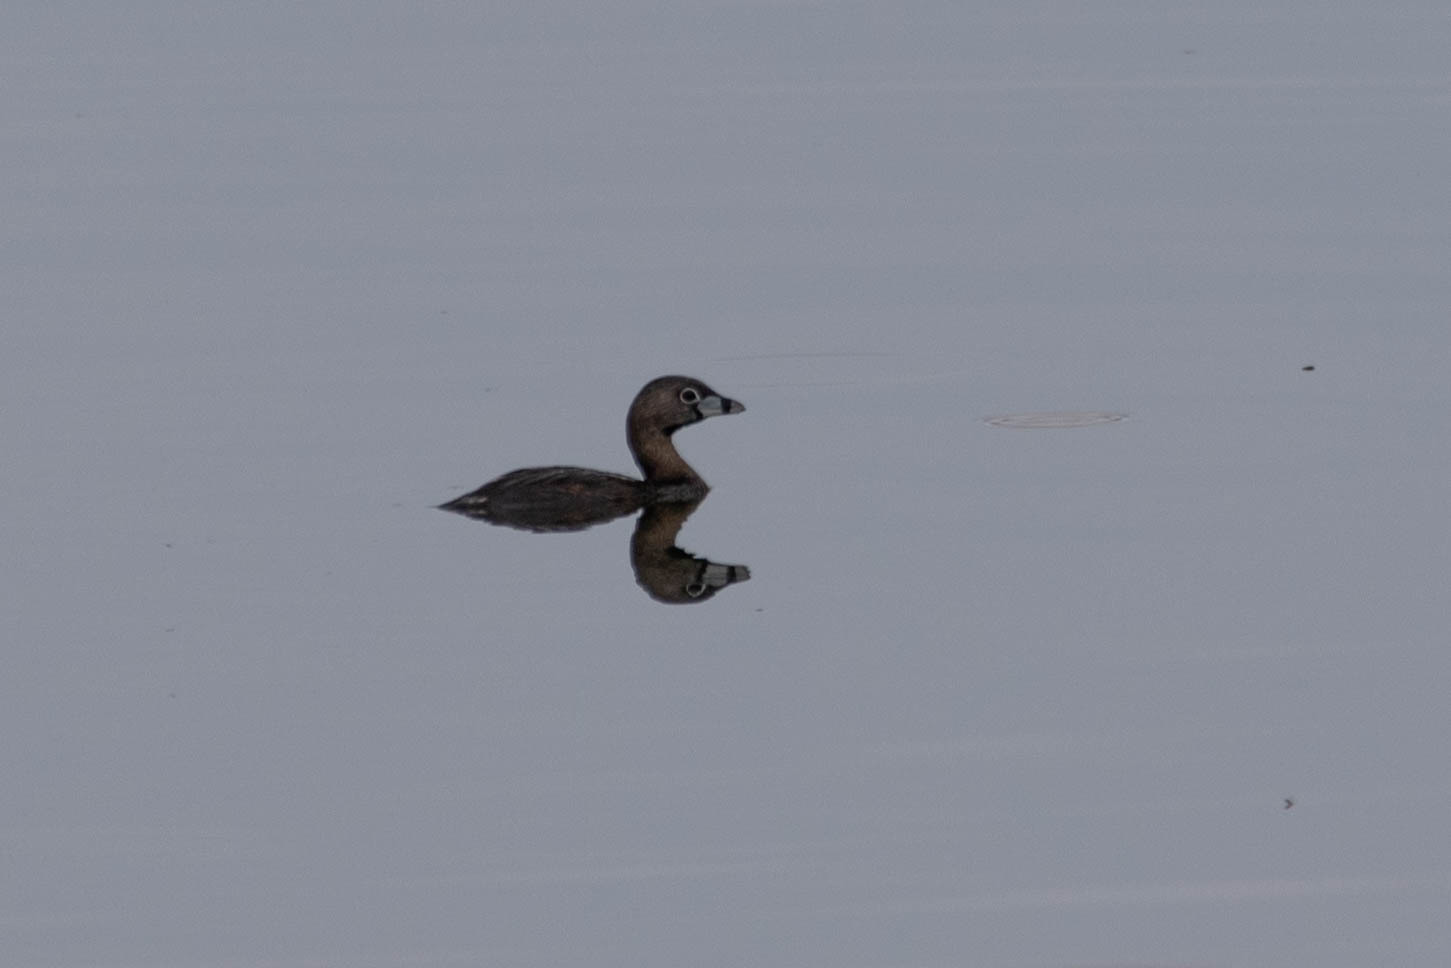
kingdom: Animalia
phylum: Chordata
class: Aves
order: Podicipediformes
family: Podicipedidae
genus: Podilymbus
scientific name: Podilymbus podiceps
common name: Pied-billed grebe
